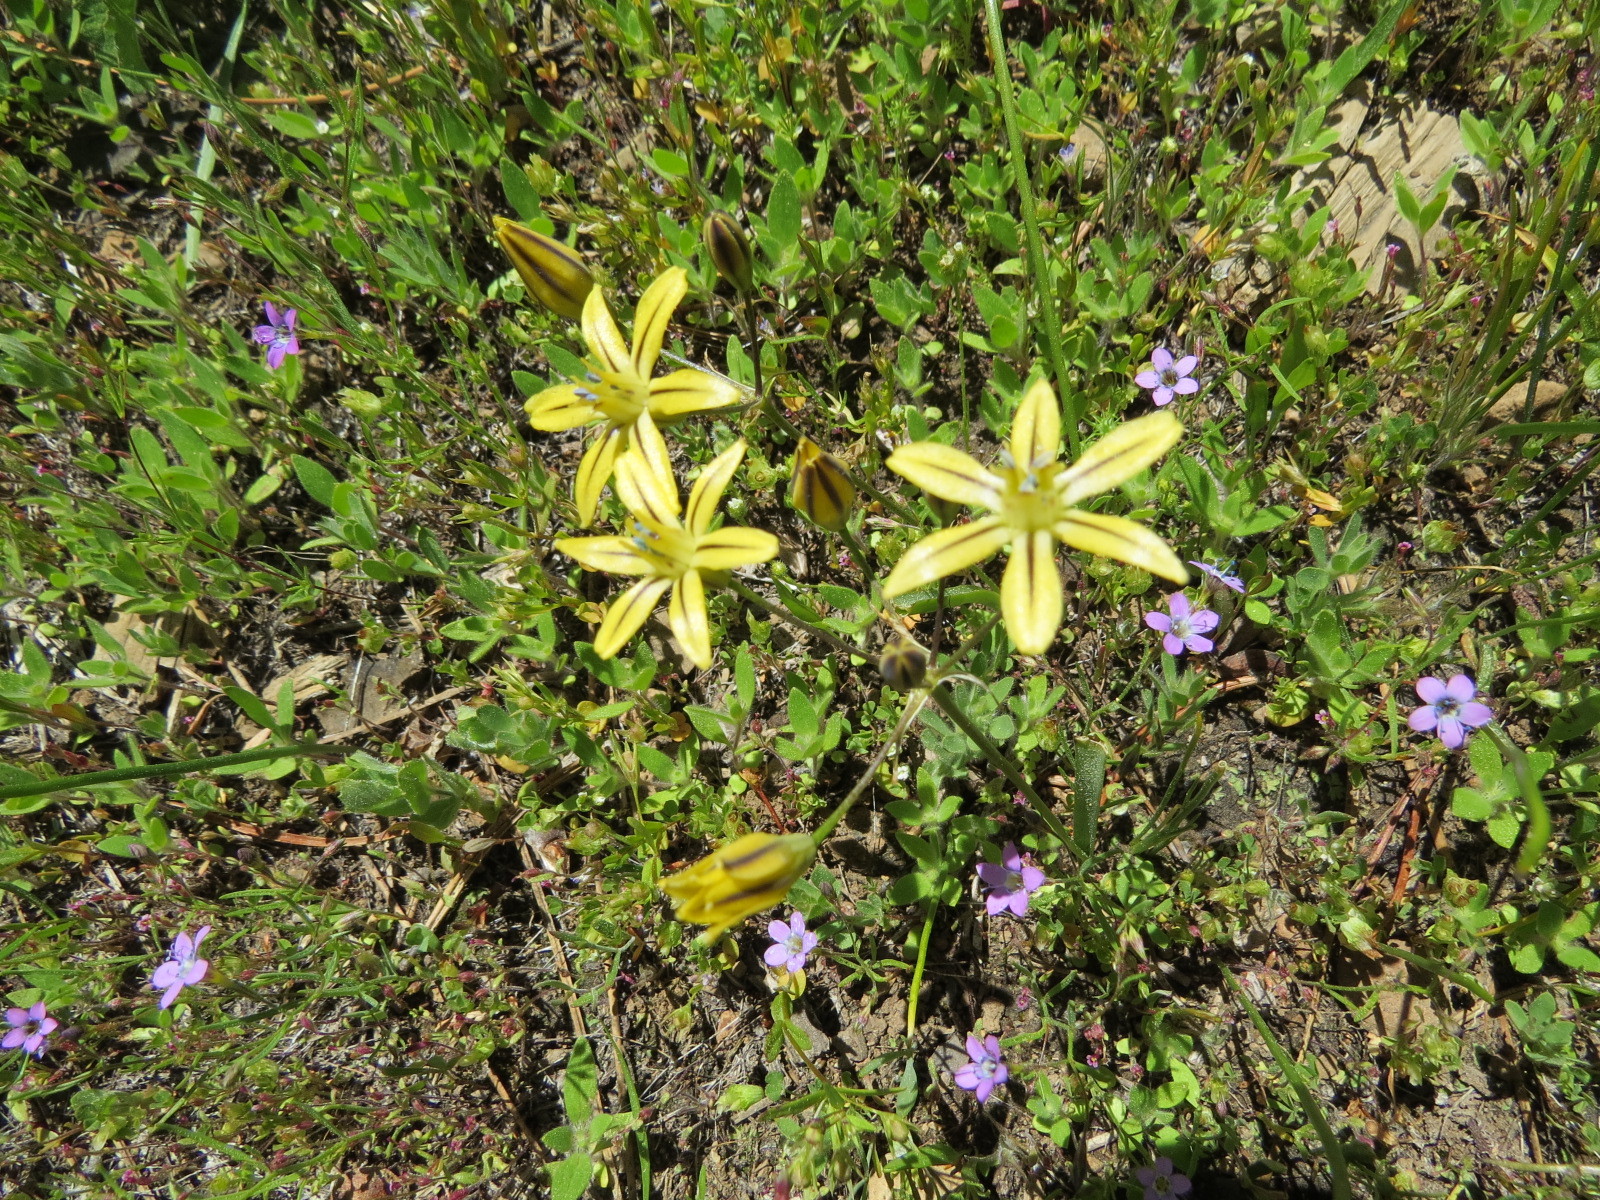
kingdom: Plantae
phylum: Tracheophyta
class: Liliopsida
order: Asparagales
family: Asparagaceae
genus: Triteleia
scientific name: Triteleia ixioides
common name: Yellow-brodiaea
